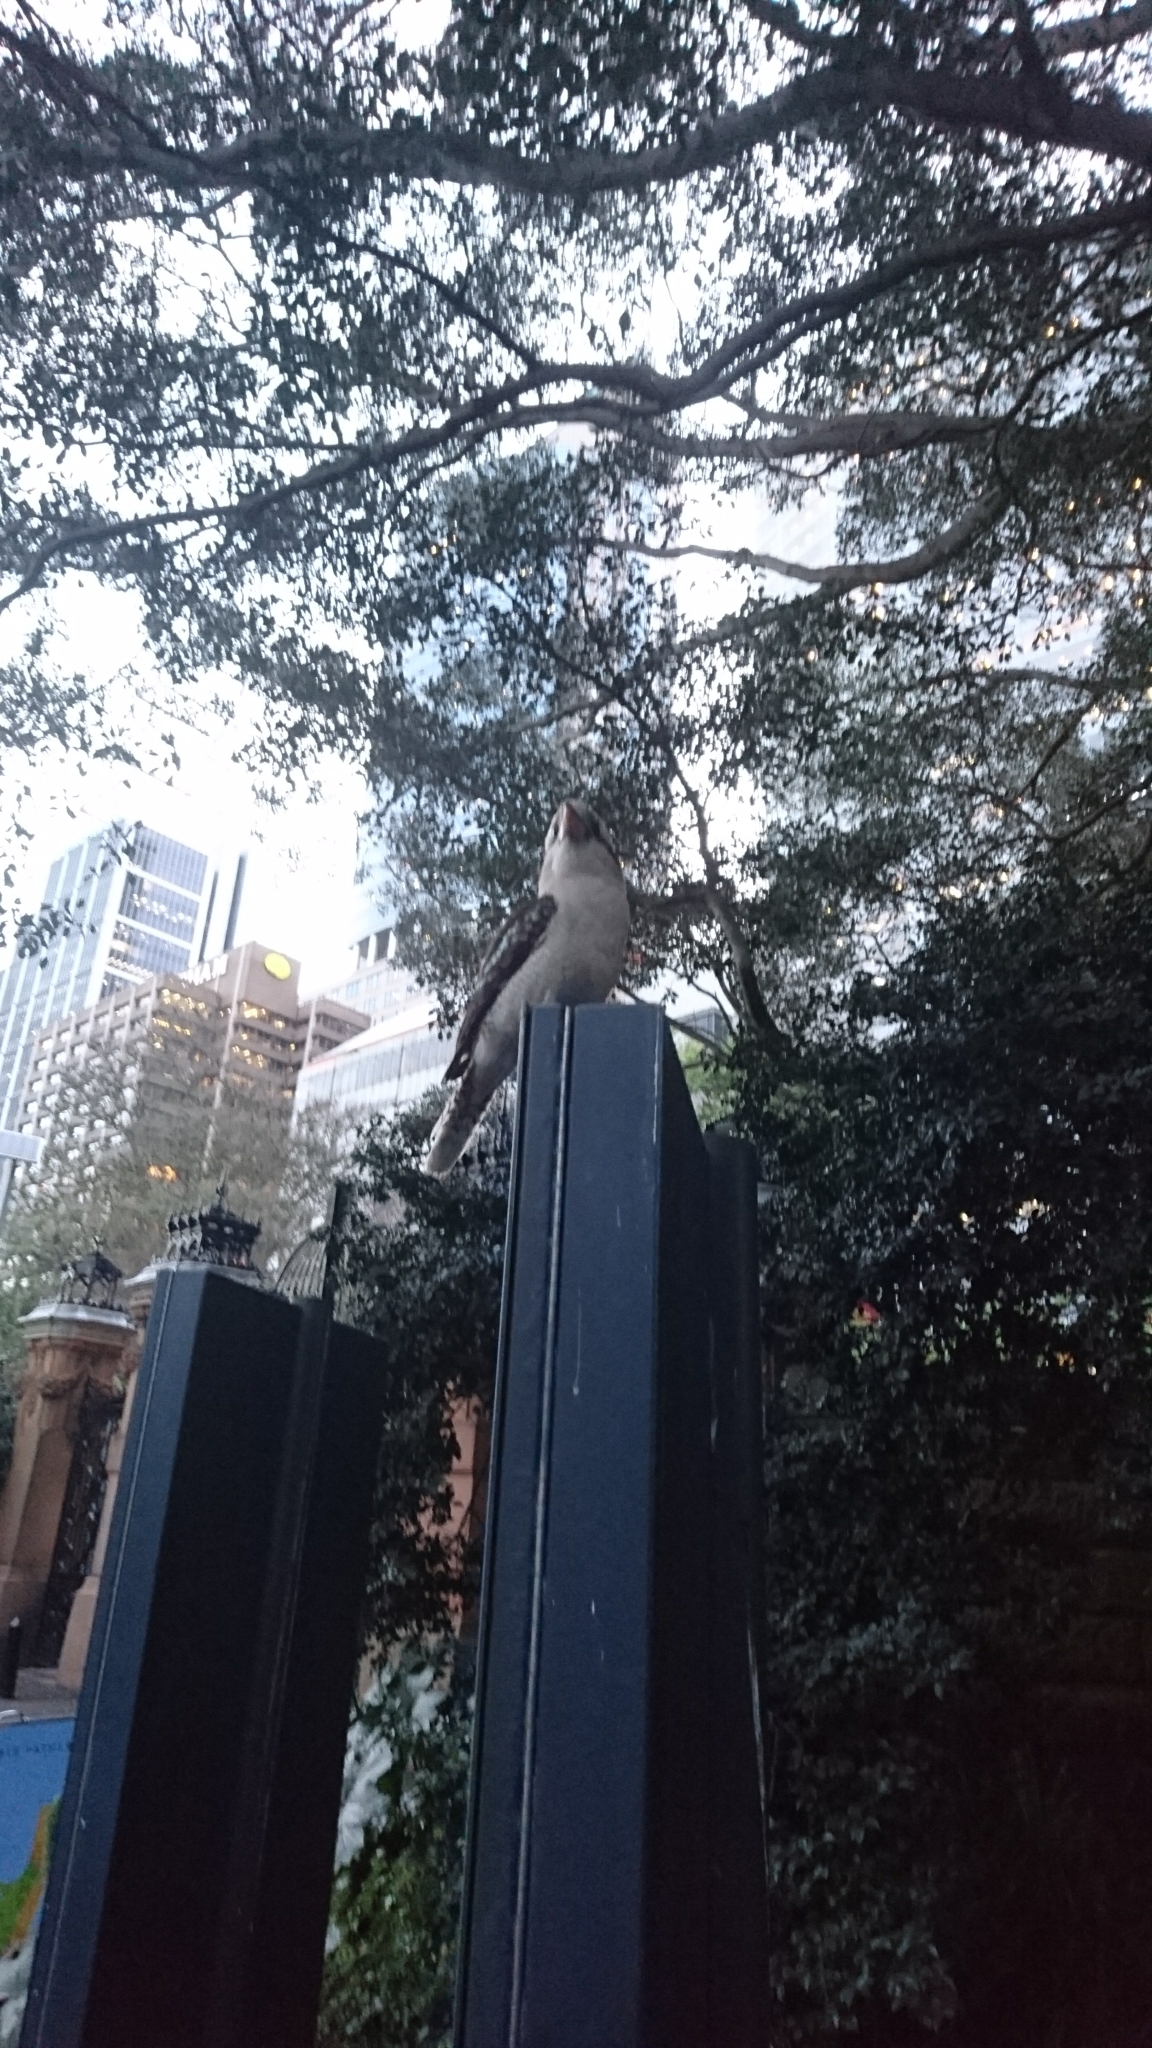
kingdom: Animalia
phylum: Chordata
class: Aves
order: Coraciiformes
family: Alcedinidae
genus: Dacelo
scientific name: Dacelo novaeguineae
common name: Laughing kookaburra
